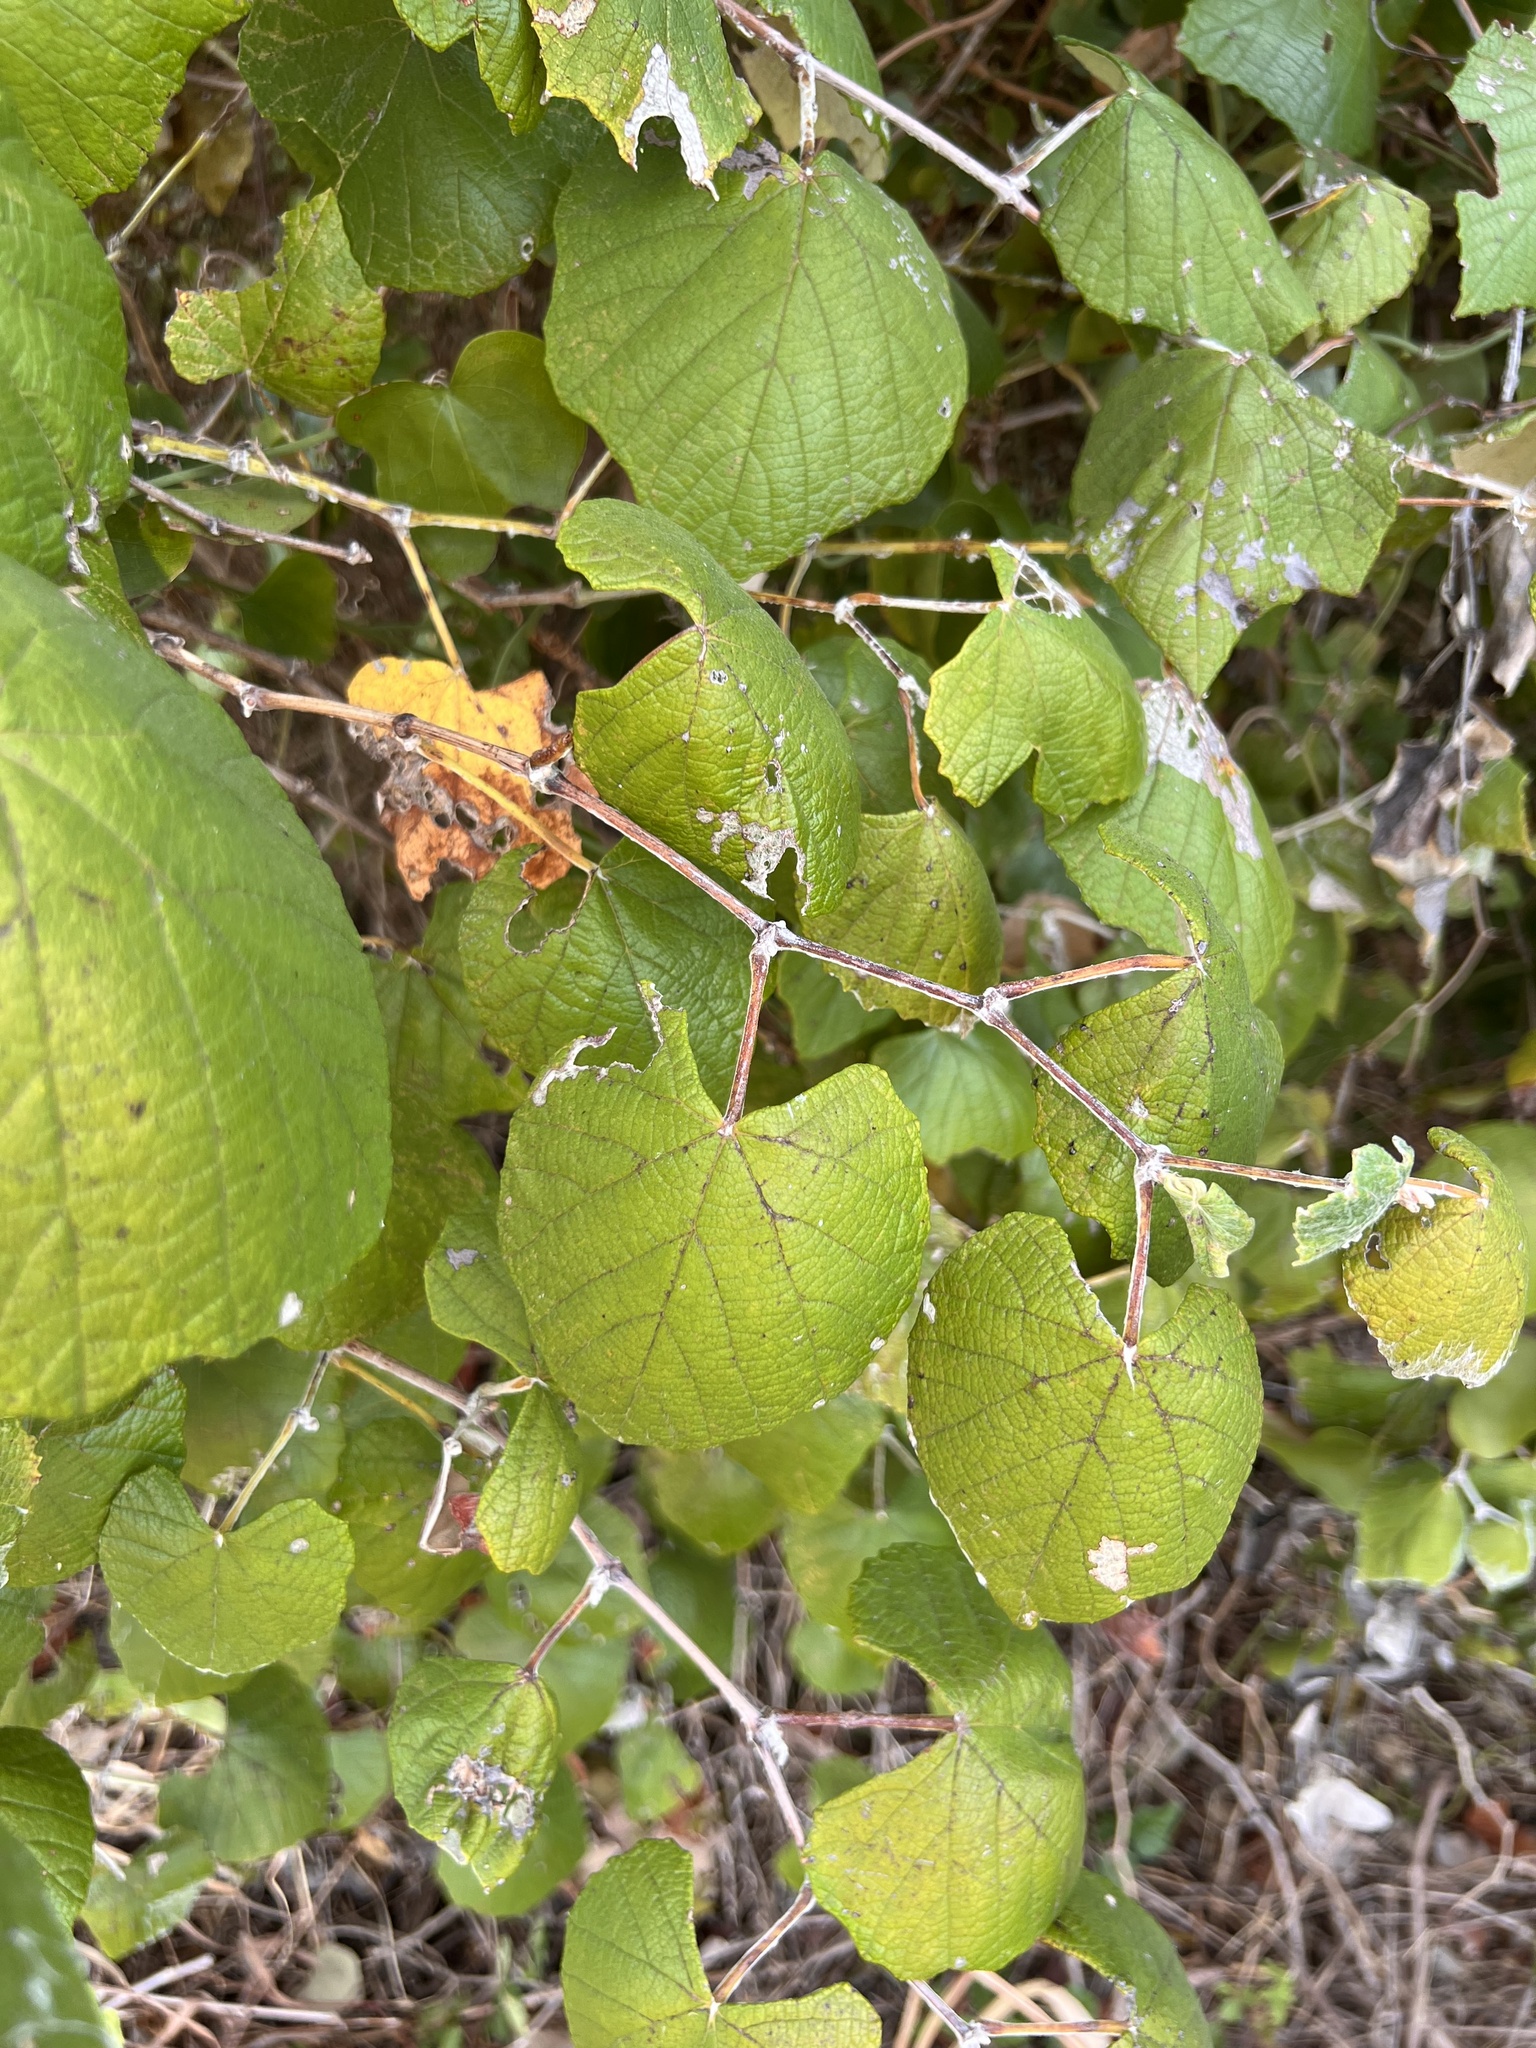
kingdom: Plantae
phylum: Tracheophyta
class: Magnoliopsida
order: Vitales
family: Vitaceae
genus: Vitis
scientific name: Vitis mustangensis
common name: Mustang grape
